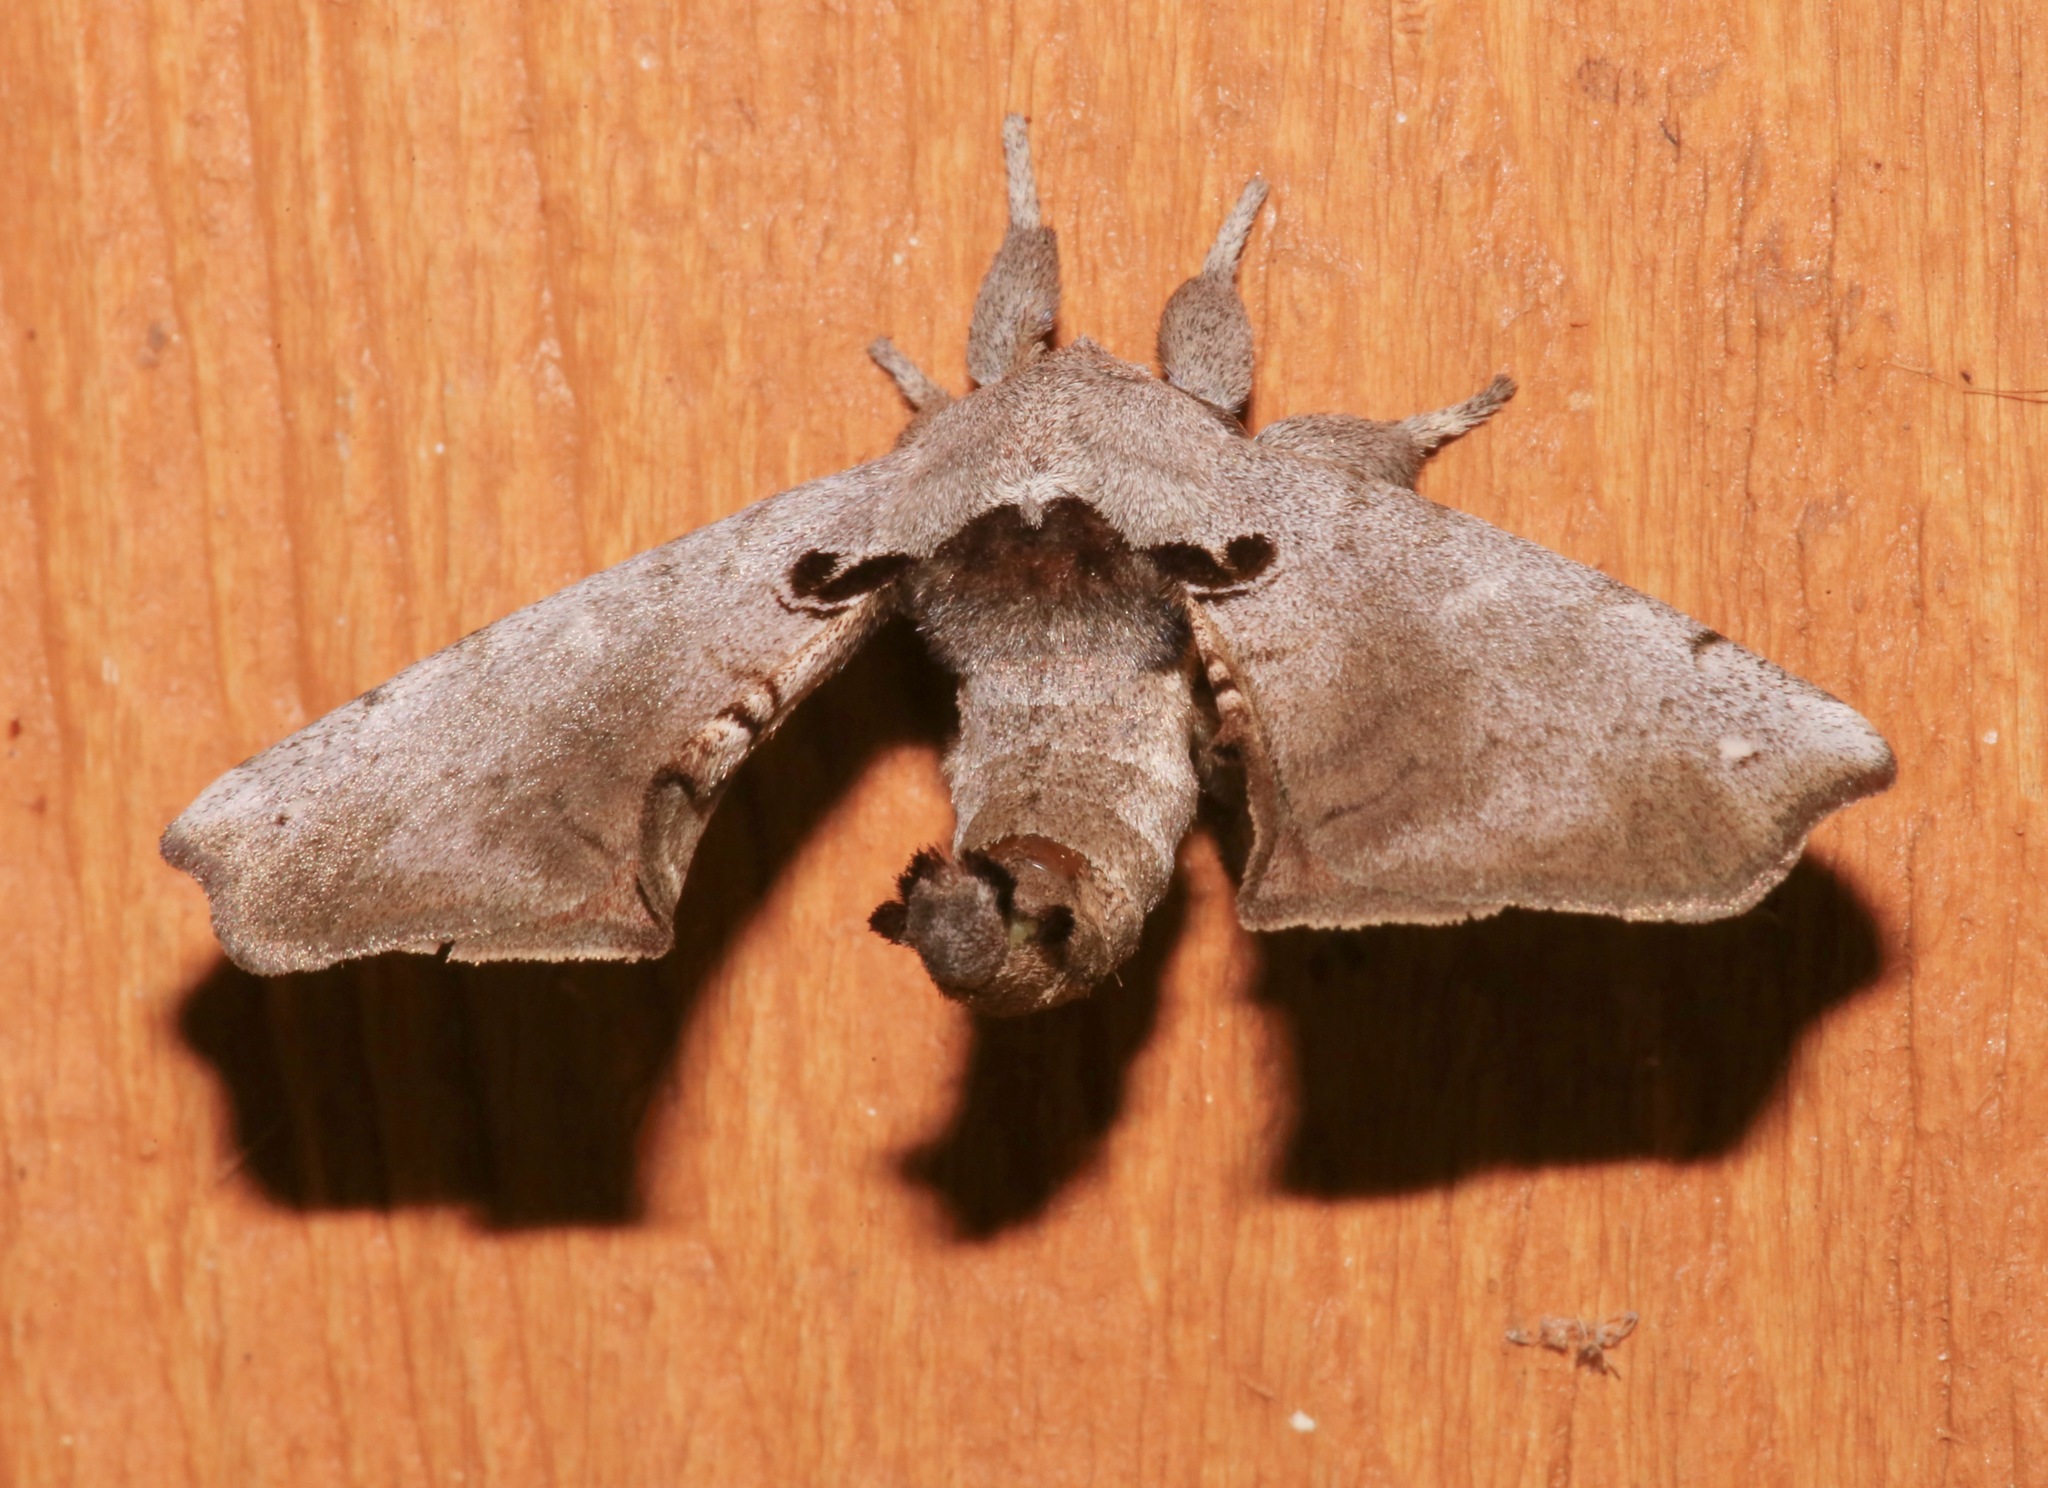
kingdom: Animalia
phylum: Arthropoda
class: Insecta
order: Lepidoptera
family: Apatelodidae
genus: Hygrochroa
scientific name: Hygrochroa Apatelodes torrefacta
